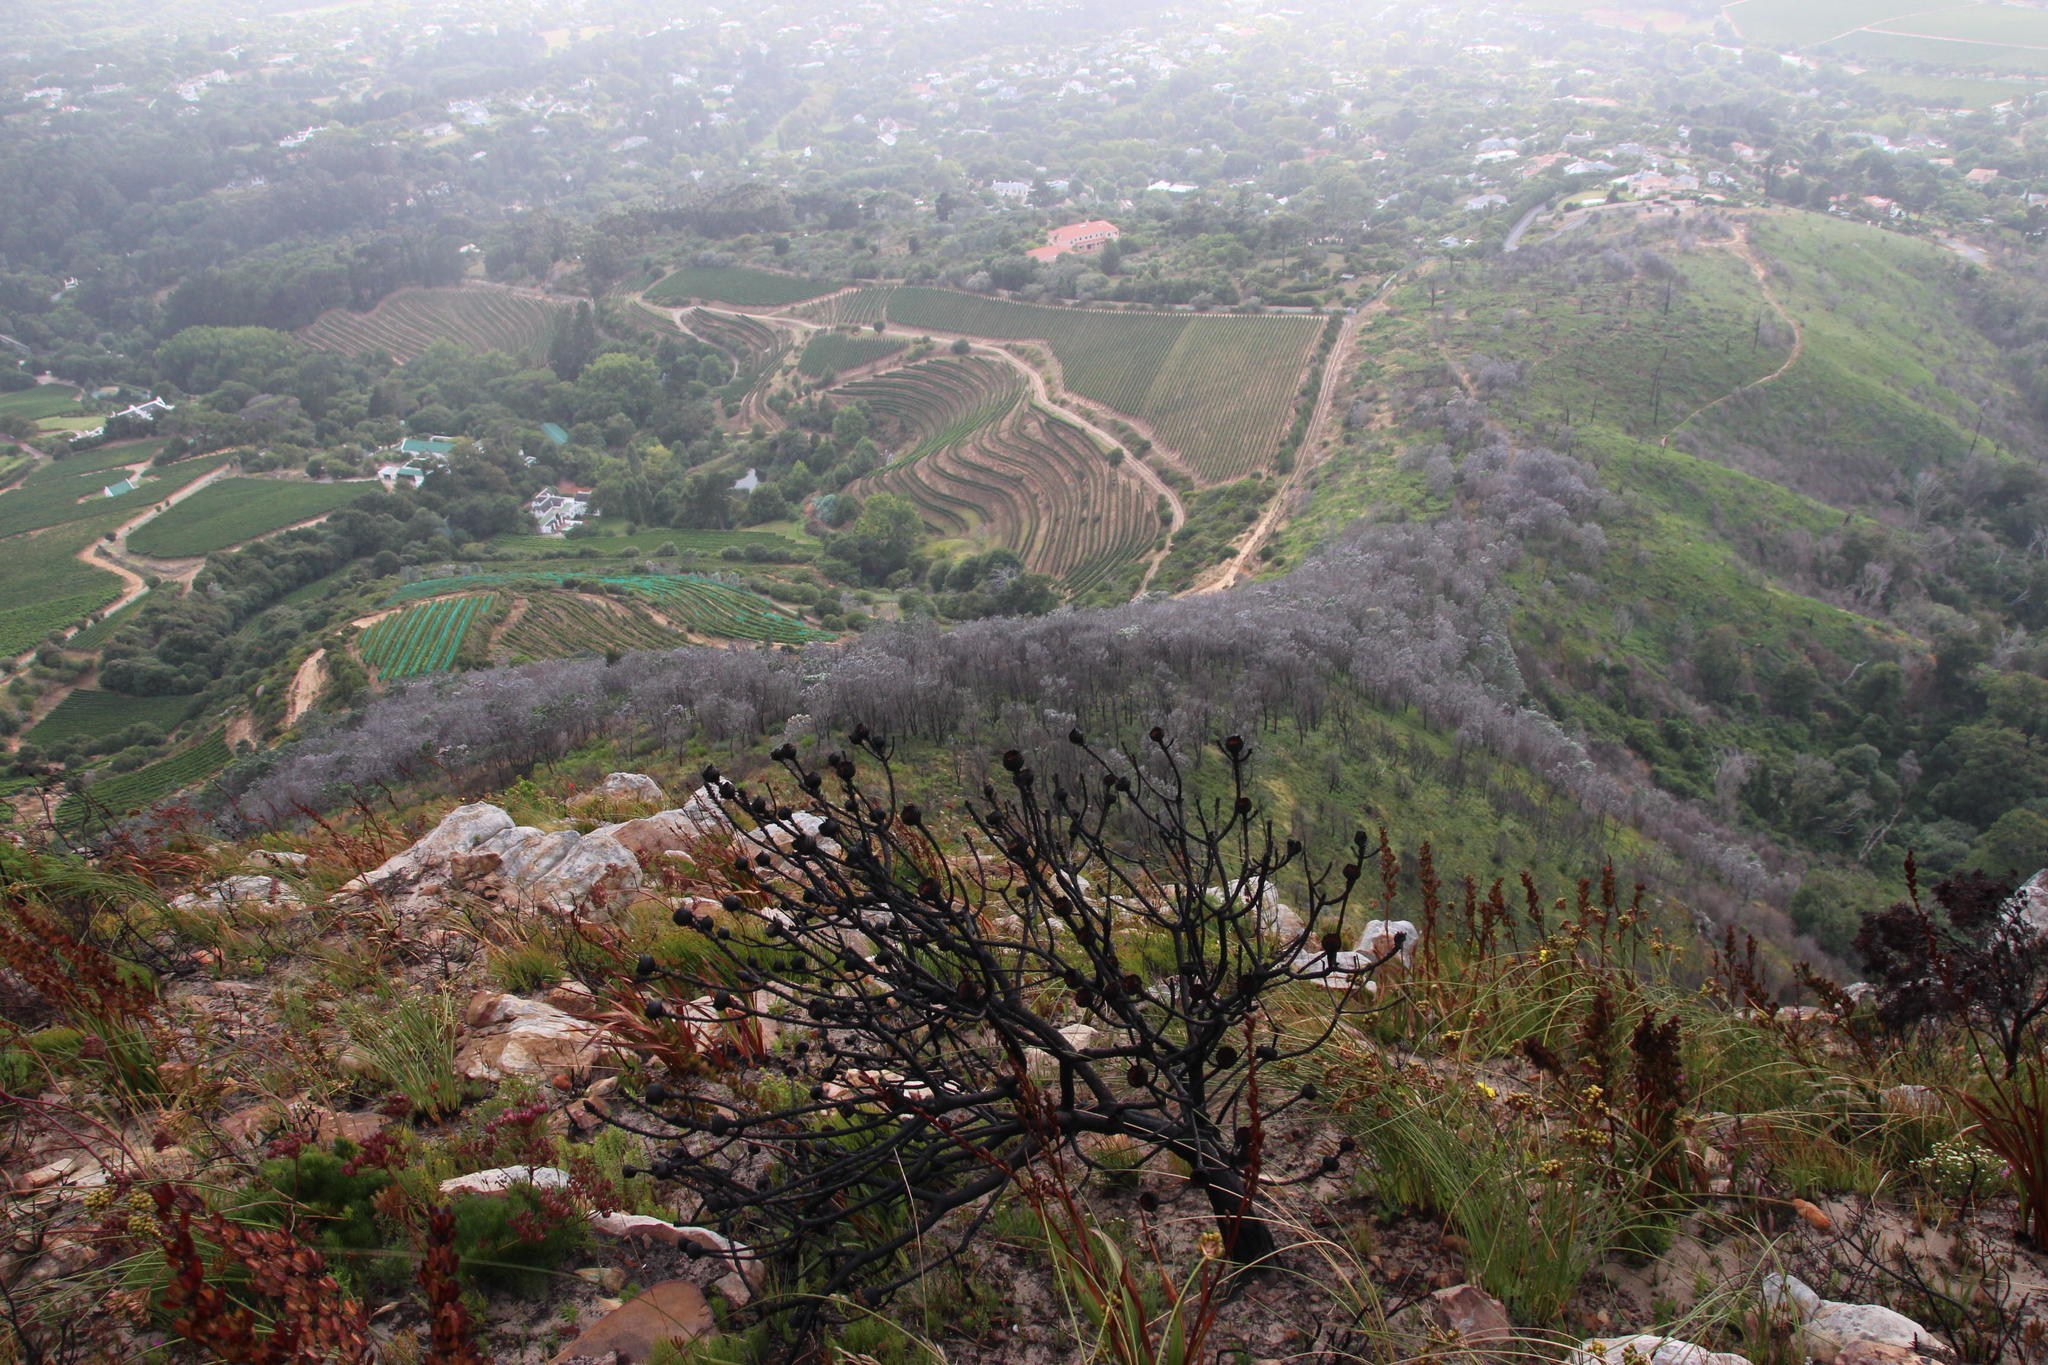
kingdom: Plantae
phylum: Tracheophyta
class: Magnoliopsida
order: Proteales
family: Proteaceae
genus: Leucadendron
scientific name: Leucadendron argenteum
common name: Cape silver tree
